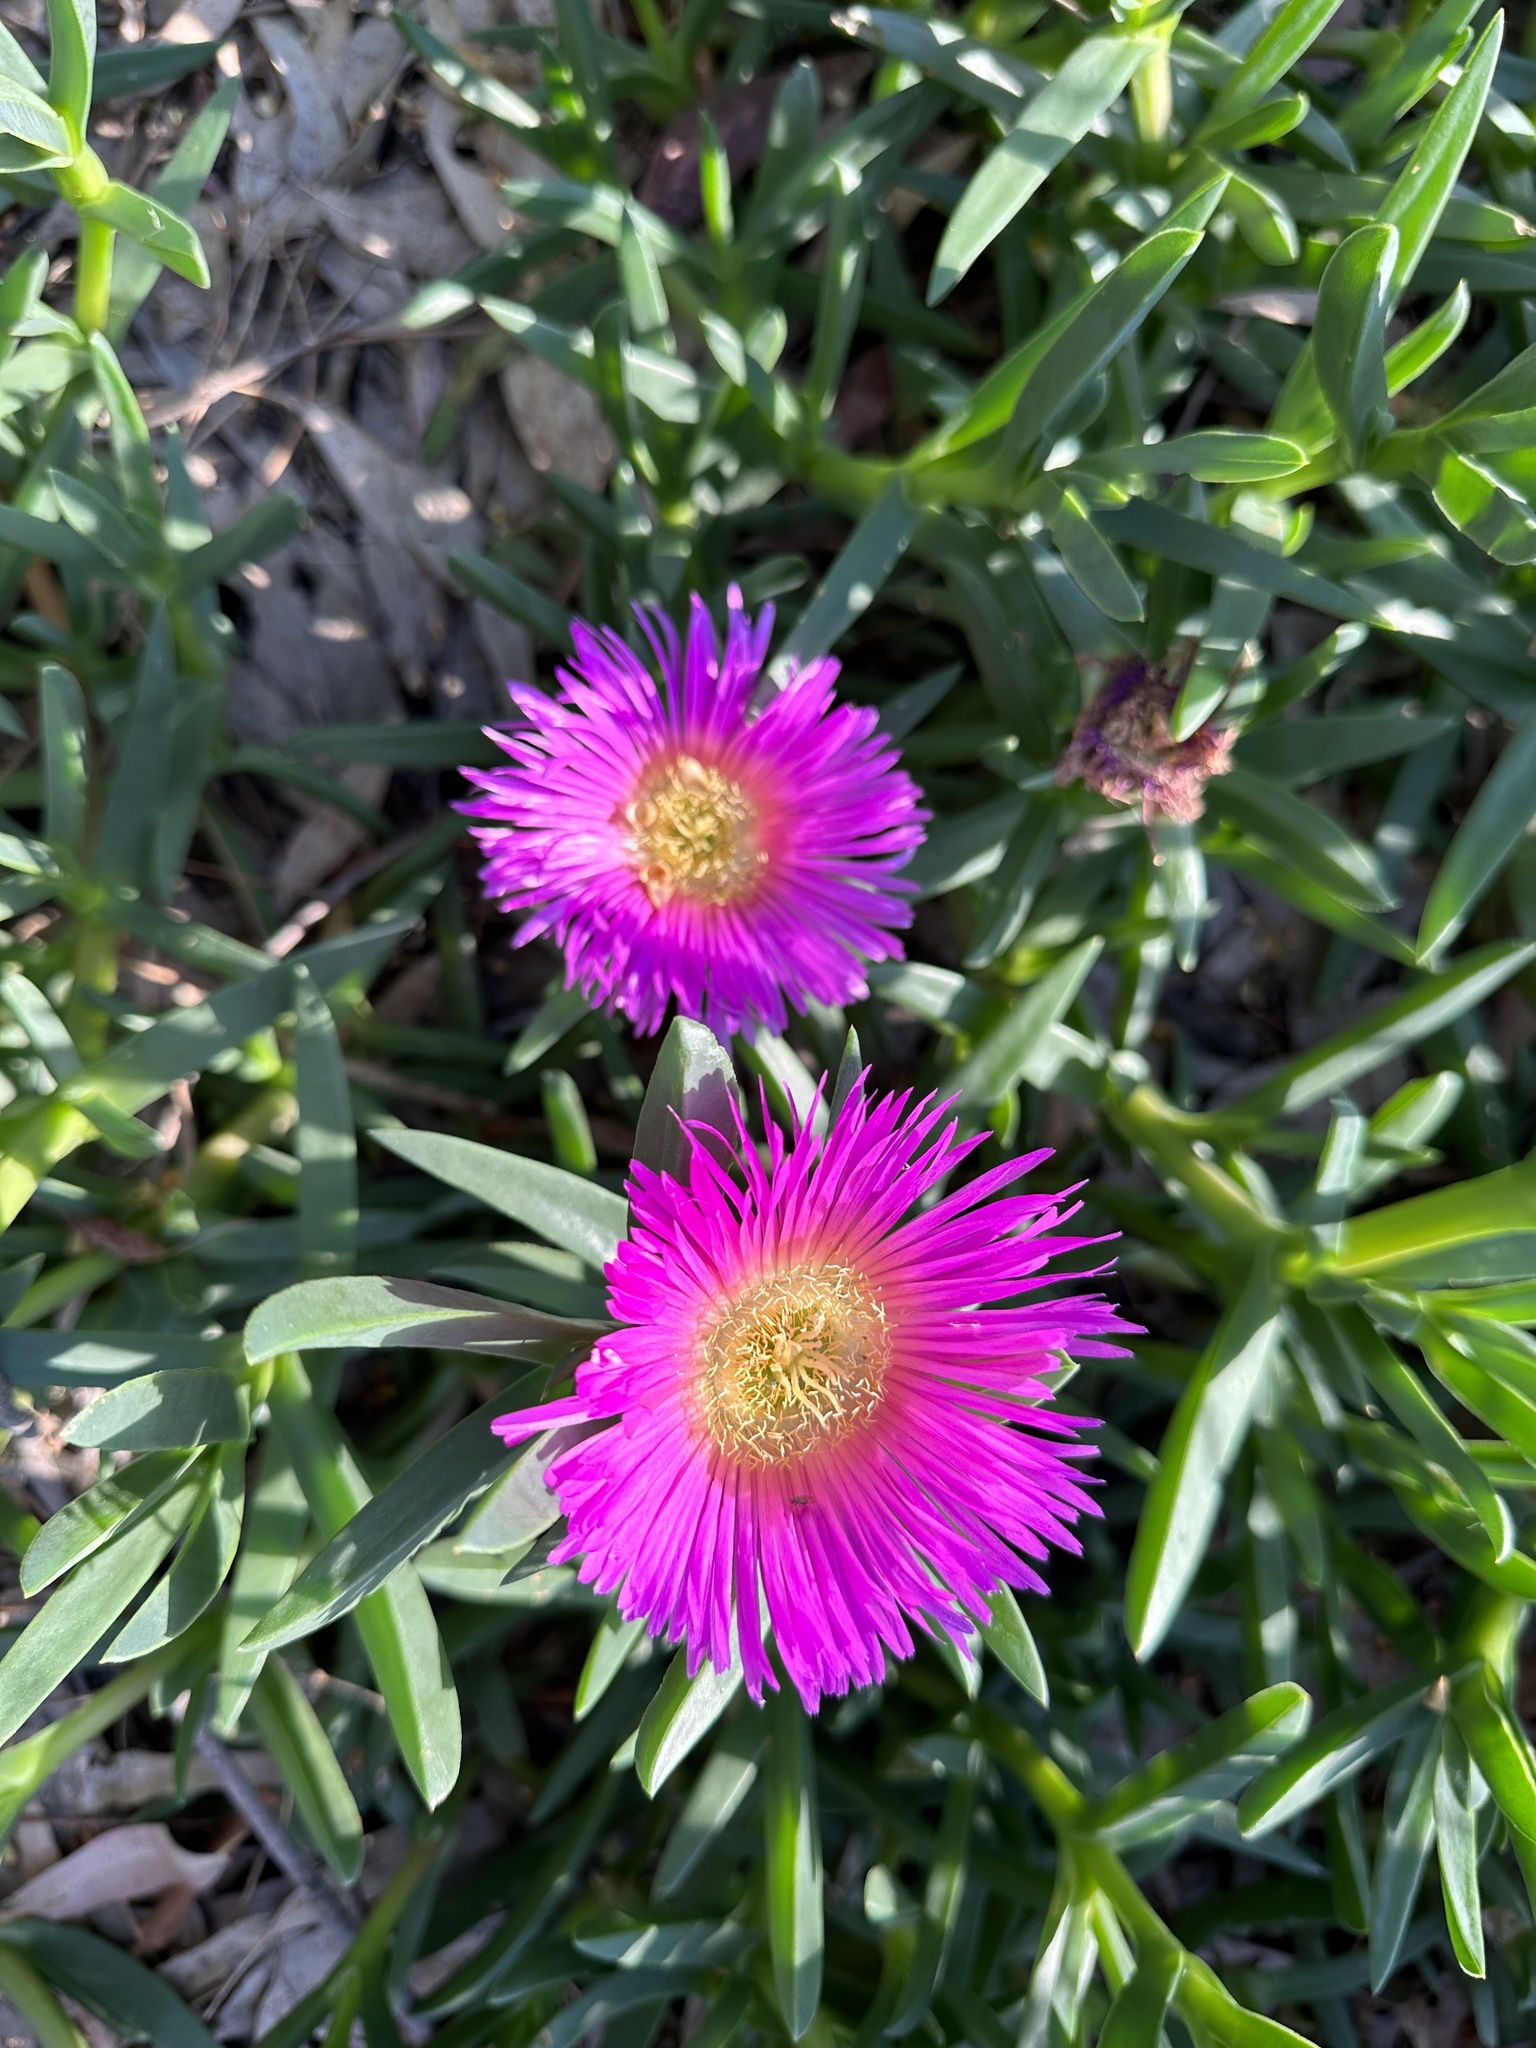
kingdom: Plantae
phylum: Tracheophyta
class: Magnoliopsida
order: Caryophyllales
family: Aizoaceae
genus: Carpobrotus
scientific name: Carpobrotus chilensis
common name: Sea fig
